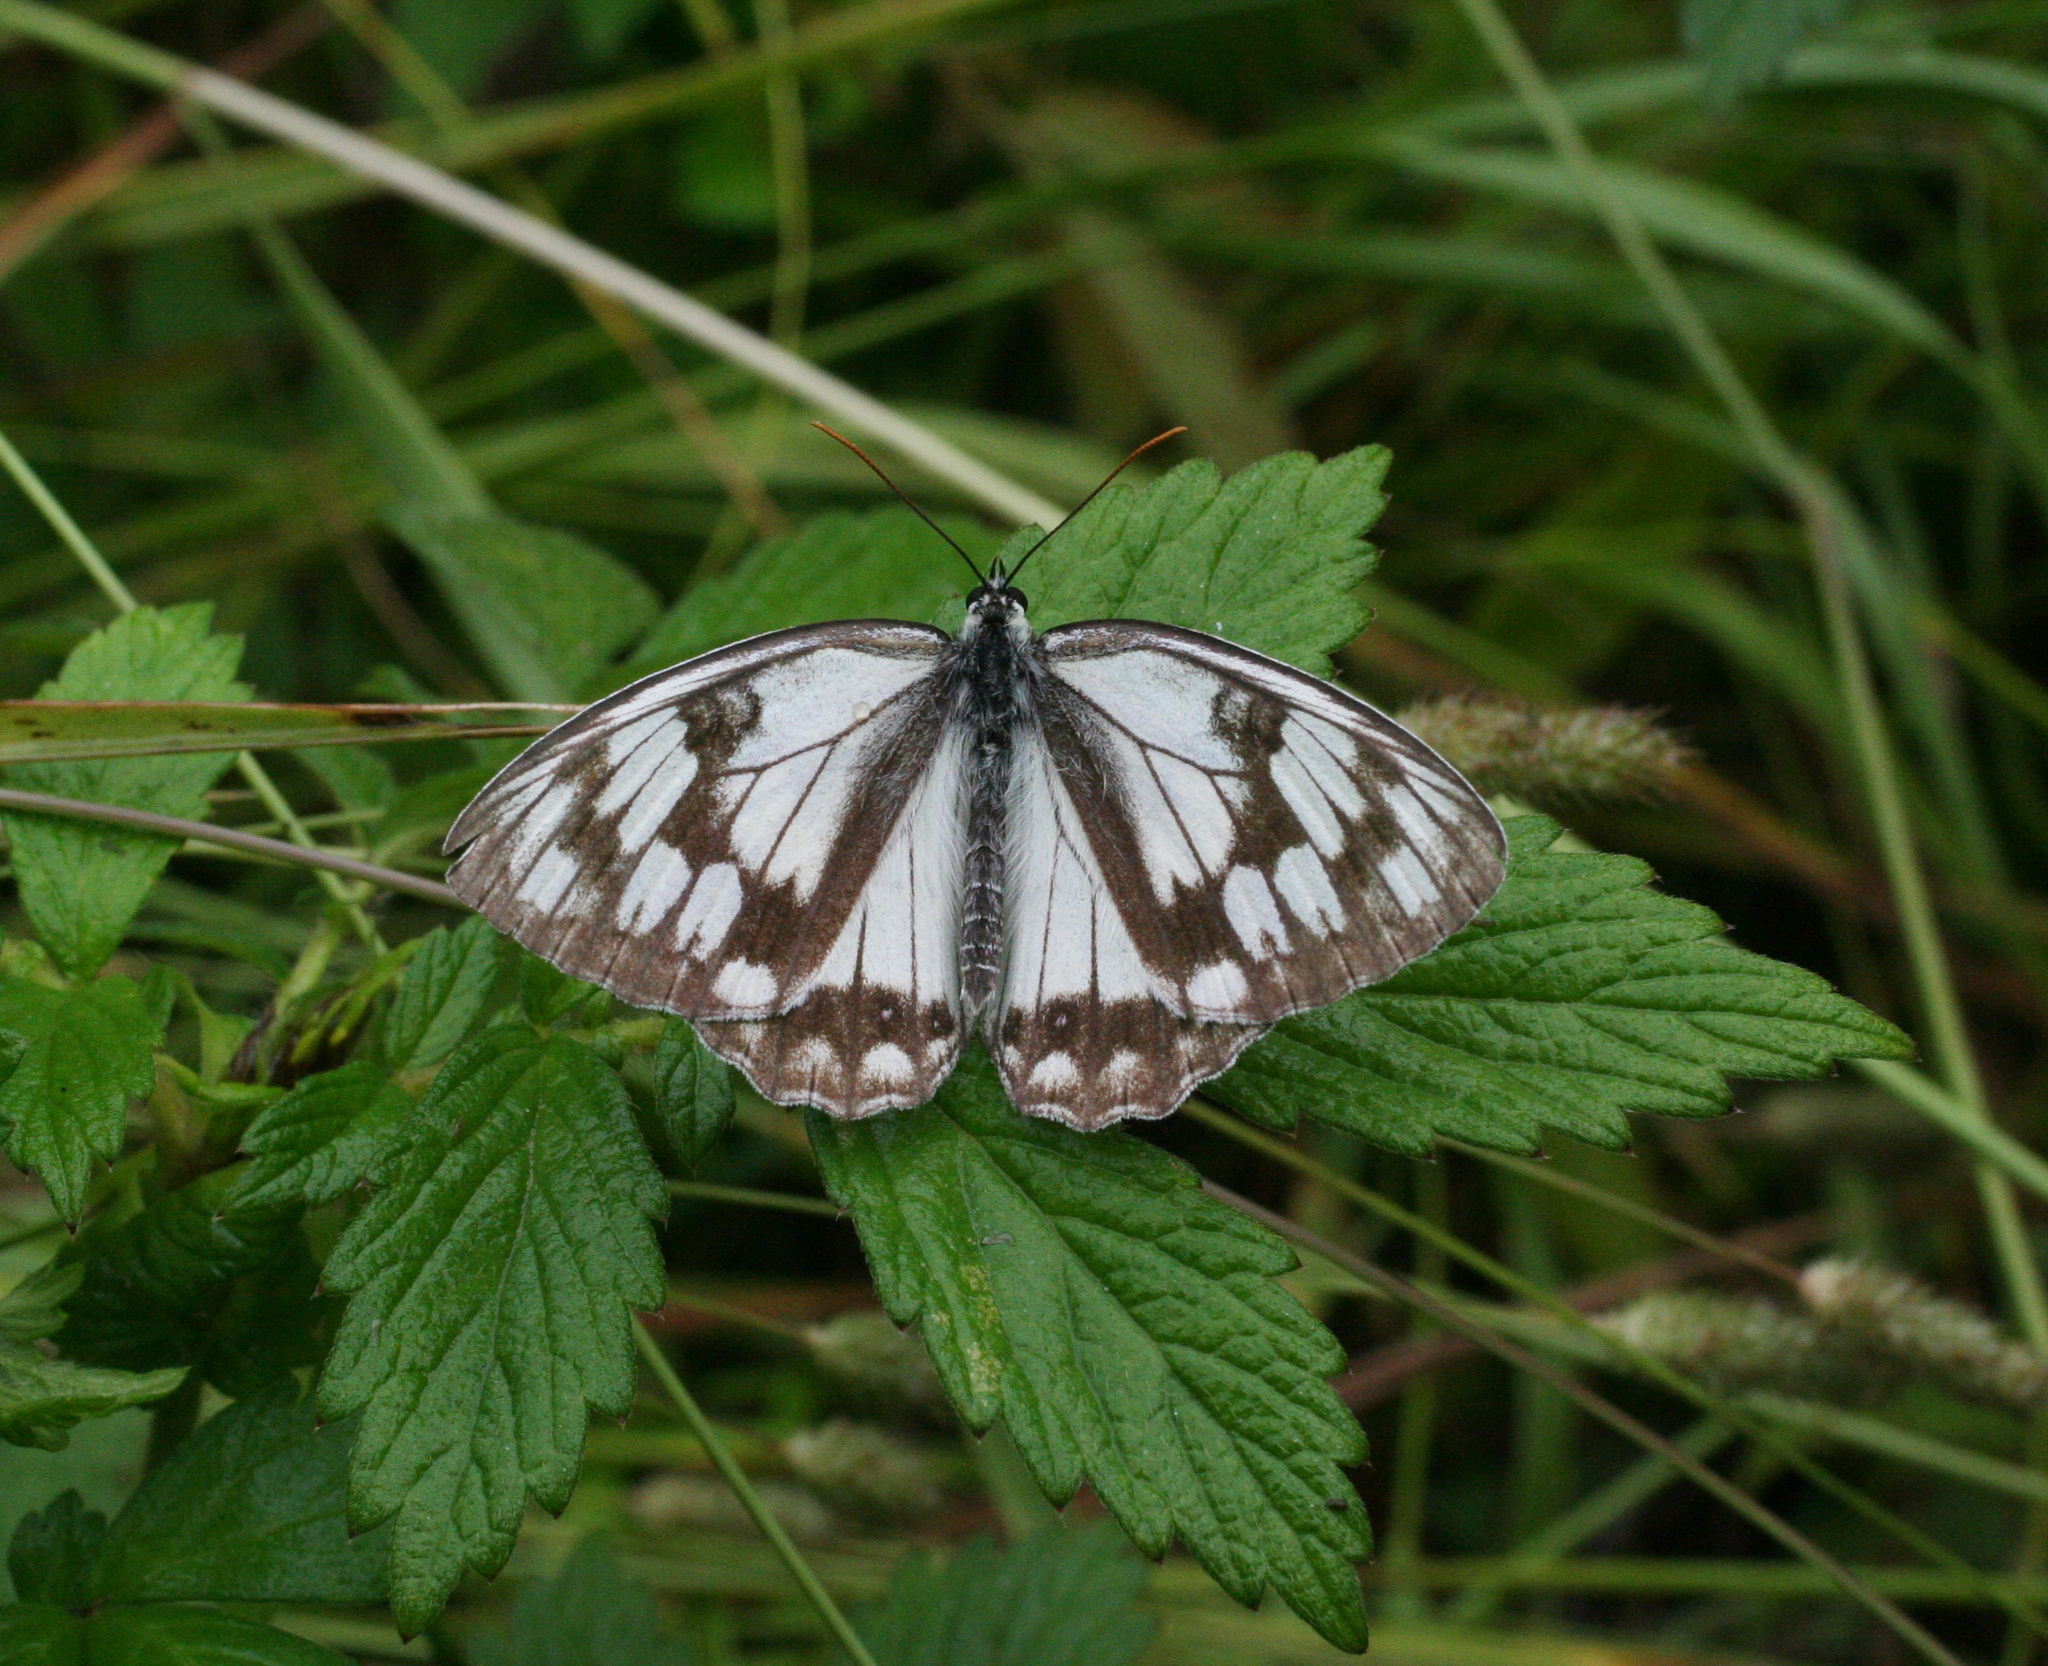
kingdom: Animalia
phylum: Arthropoda
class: Insecta
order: Lepidoptera
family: Nymphalidae
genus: Melanargia
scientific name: Melanargia halimede
